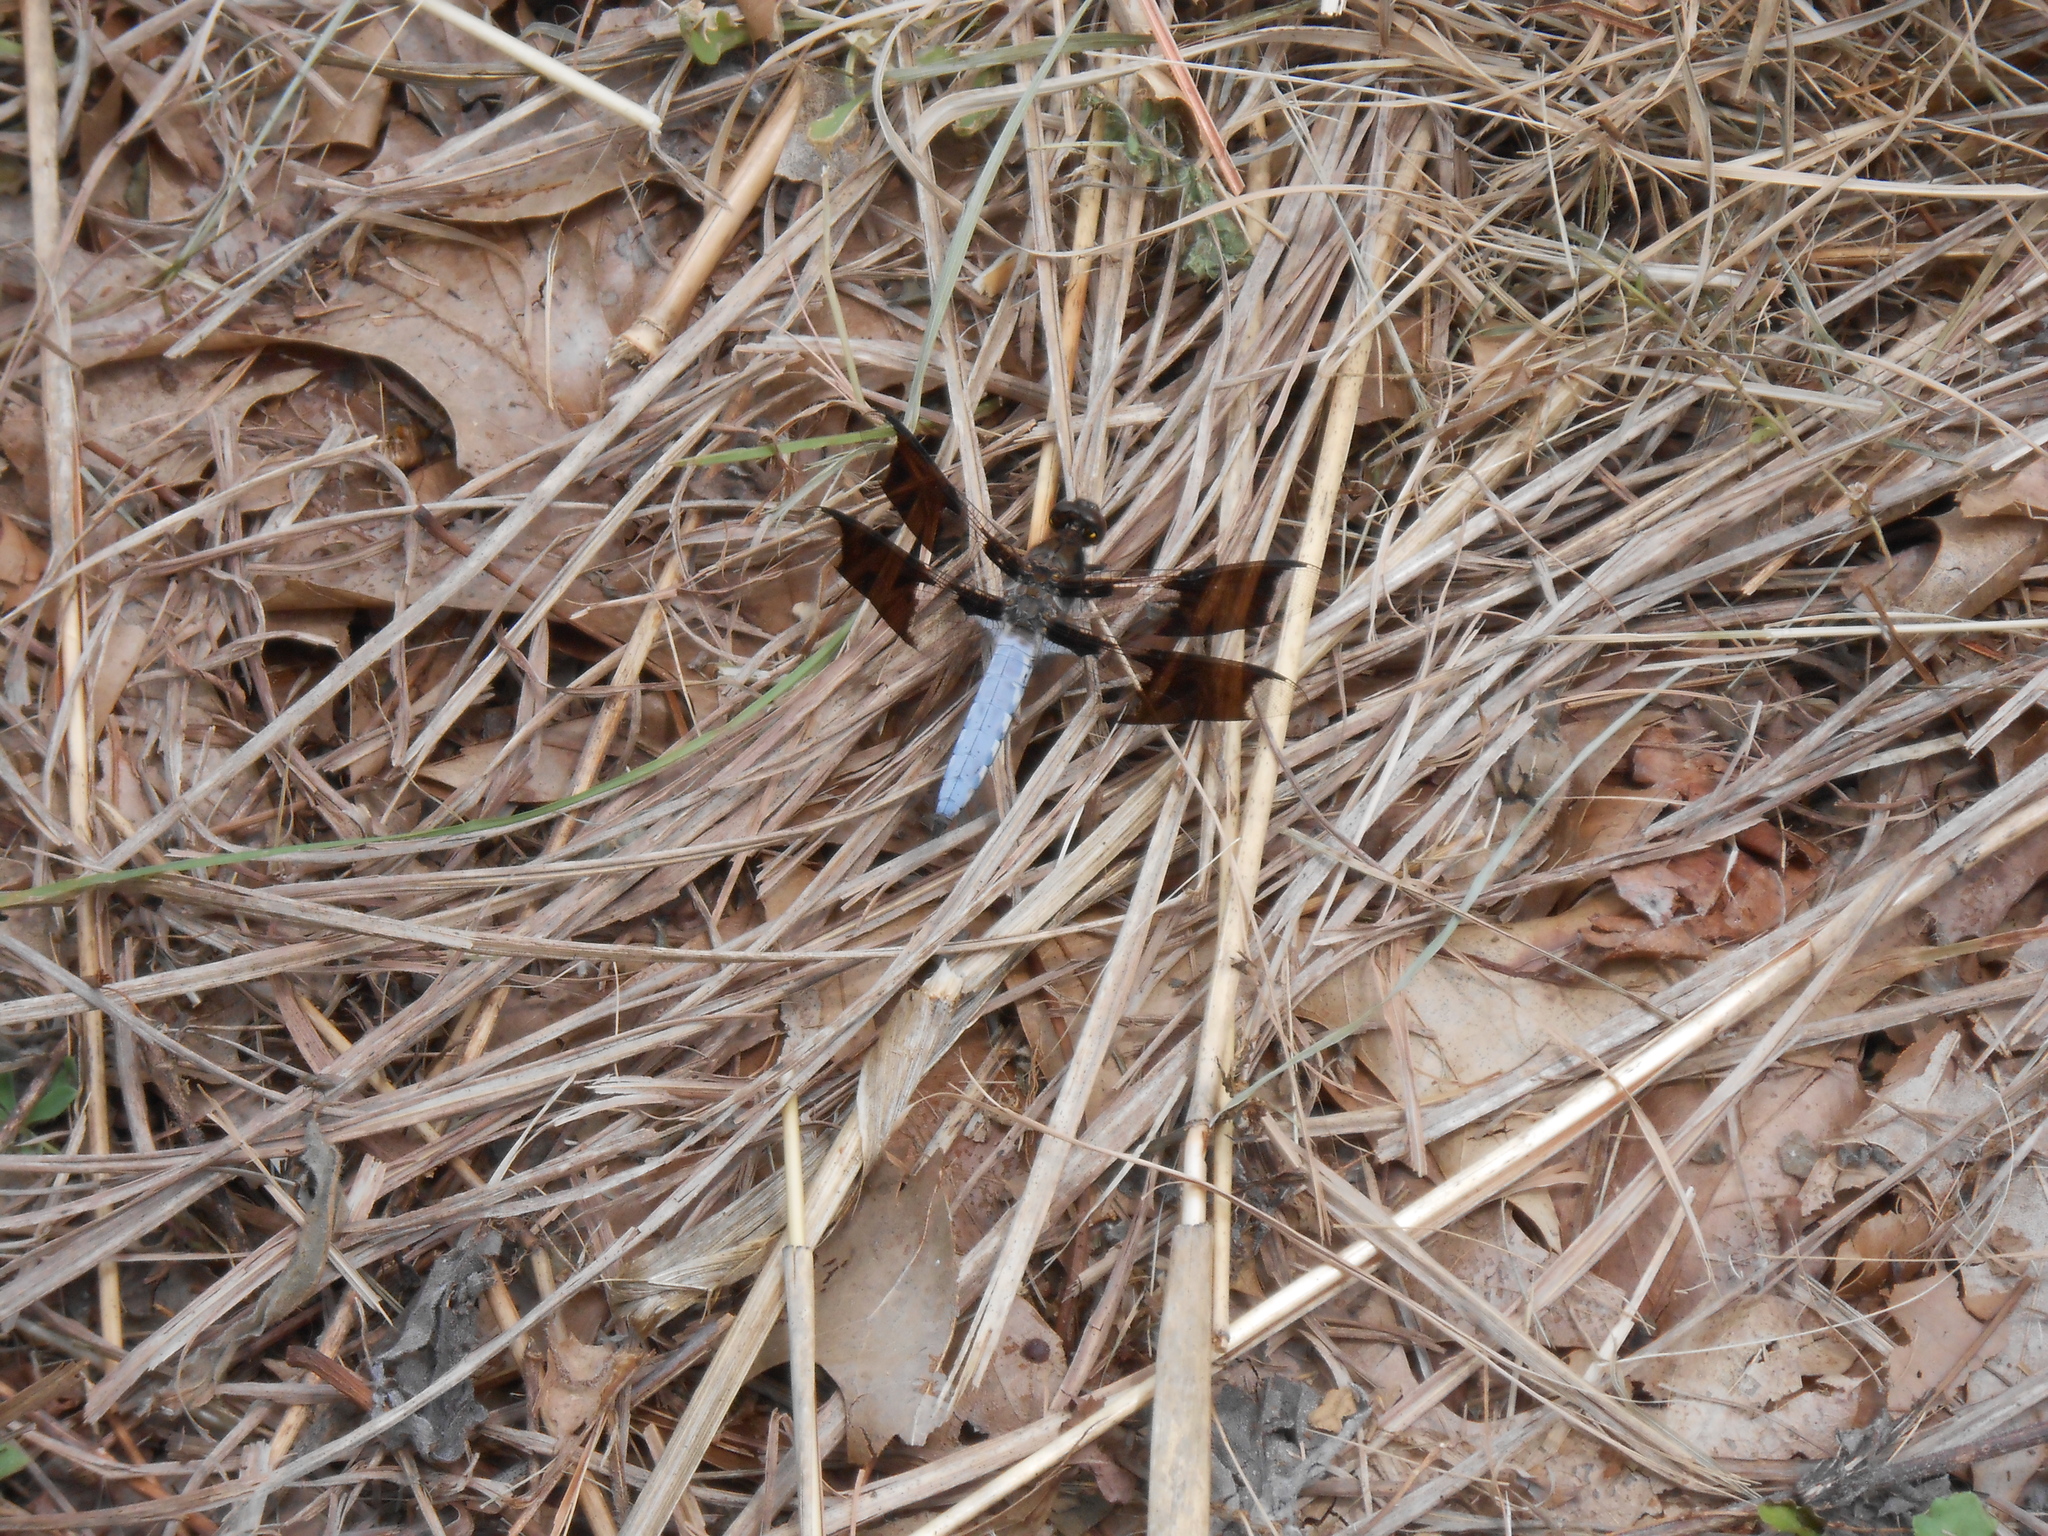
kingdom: Animalia
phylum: Arthropoda
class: Insecta
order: Odonata
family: Libellulidae
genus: Plathemis
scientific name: Plathemis lydia
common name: Common whitetail
